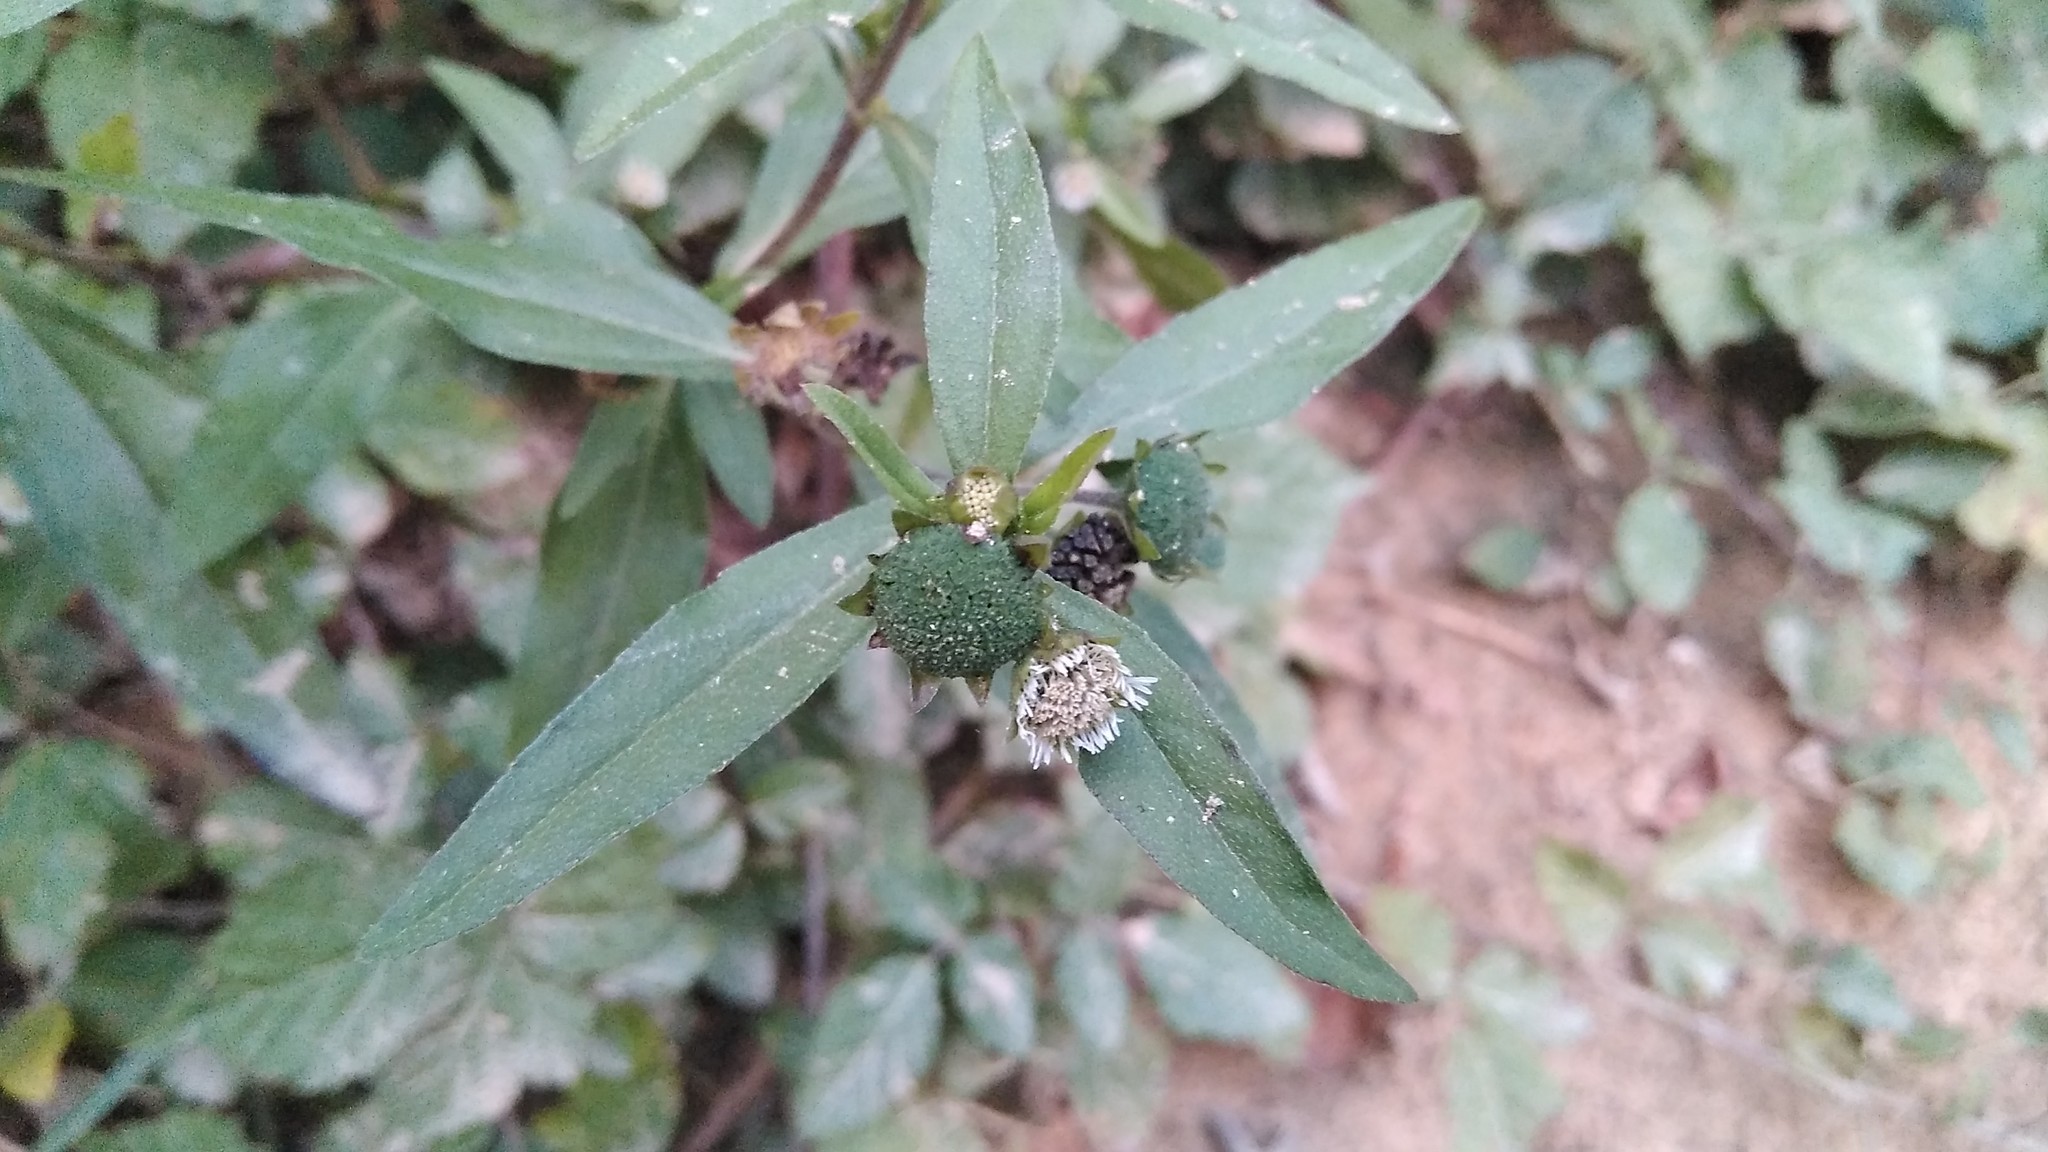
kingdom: Plantae
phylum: Tracheophyta
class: Magnoliopsida
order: Asterales
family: Asteraceae
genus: Eclipta
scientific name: Eclipta prostrata
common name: False daisy
